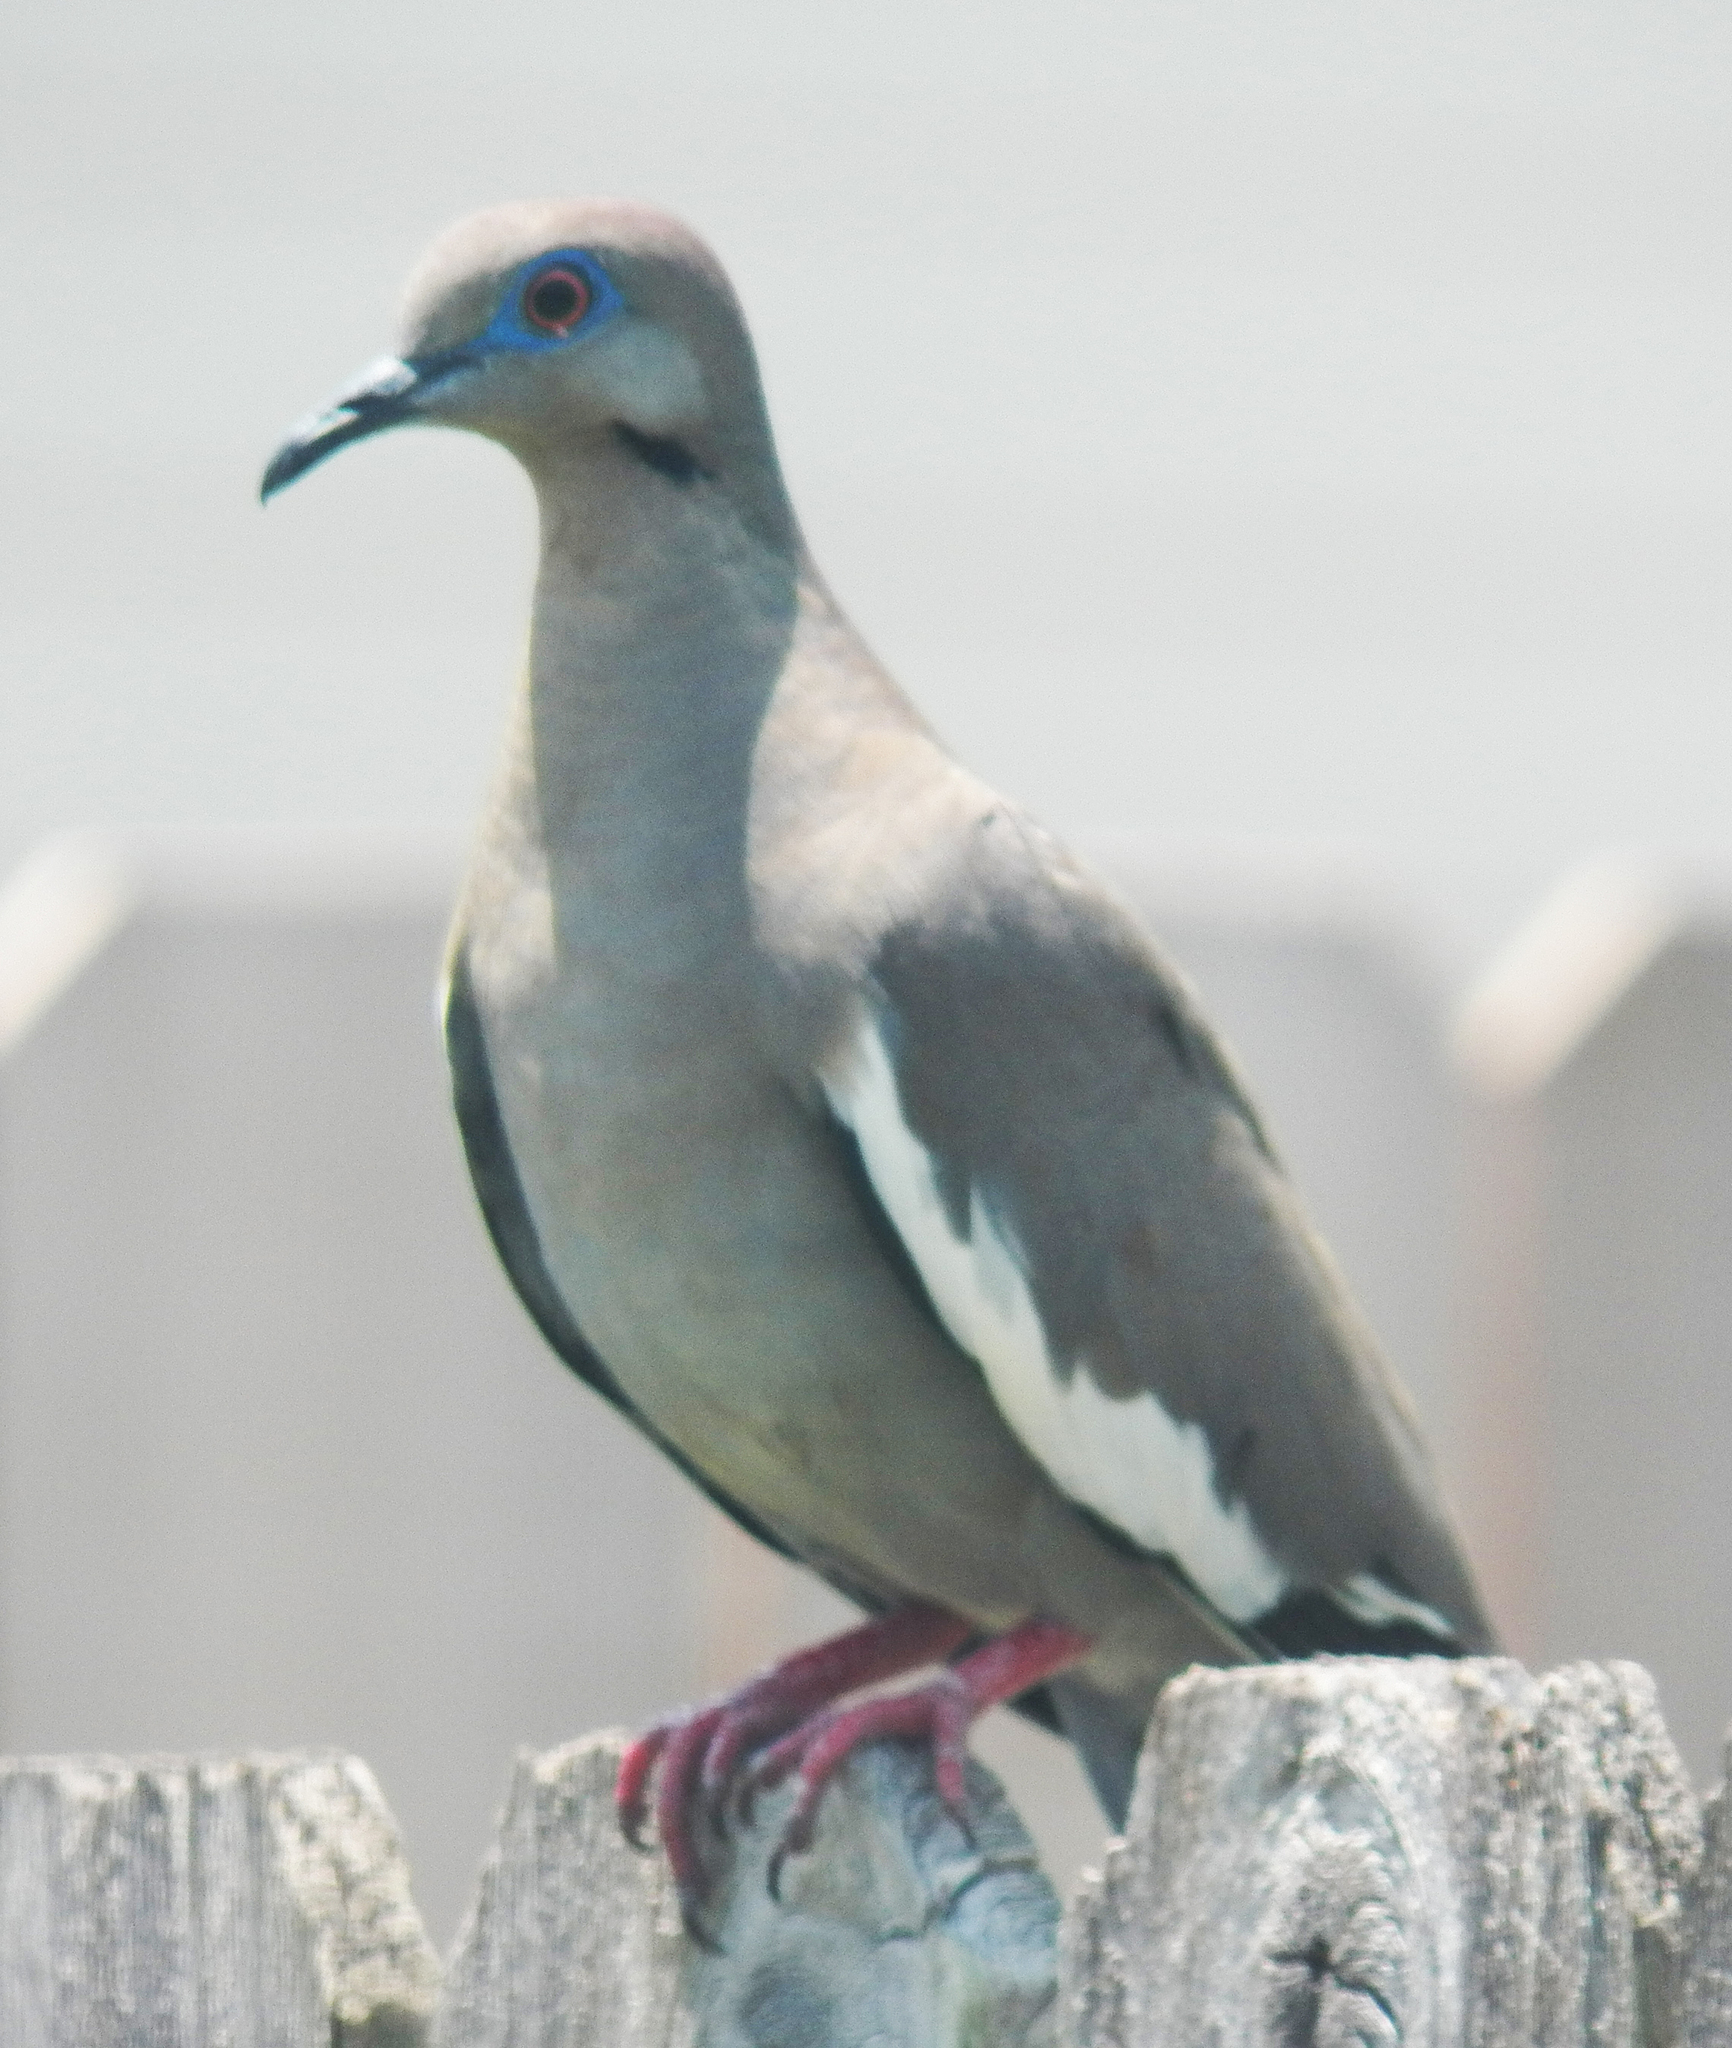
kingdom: Animalia
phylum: Chordata
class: Aves
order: Columbiformes
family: Columbidae
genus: Zenaida
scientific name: Zenaida asiatica
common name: White-winged dove
